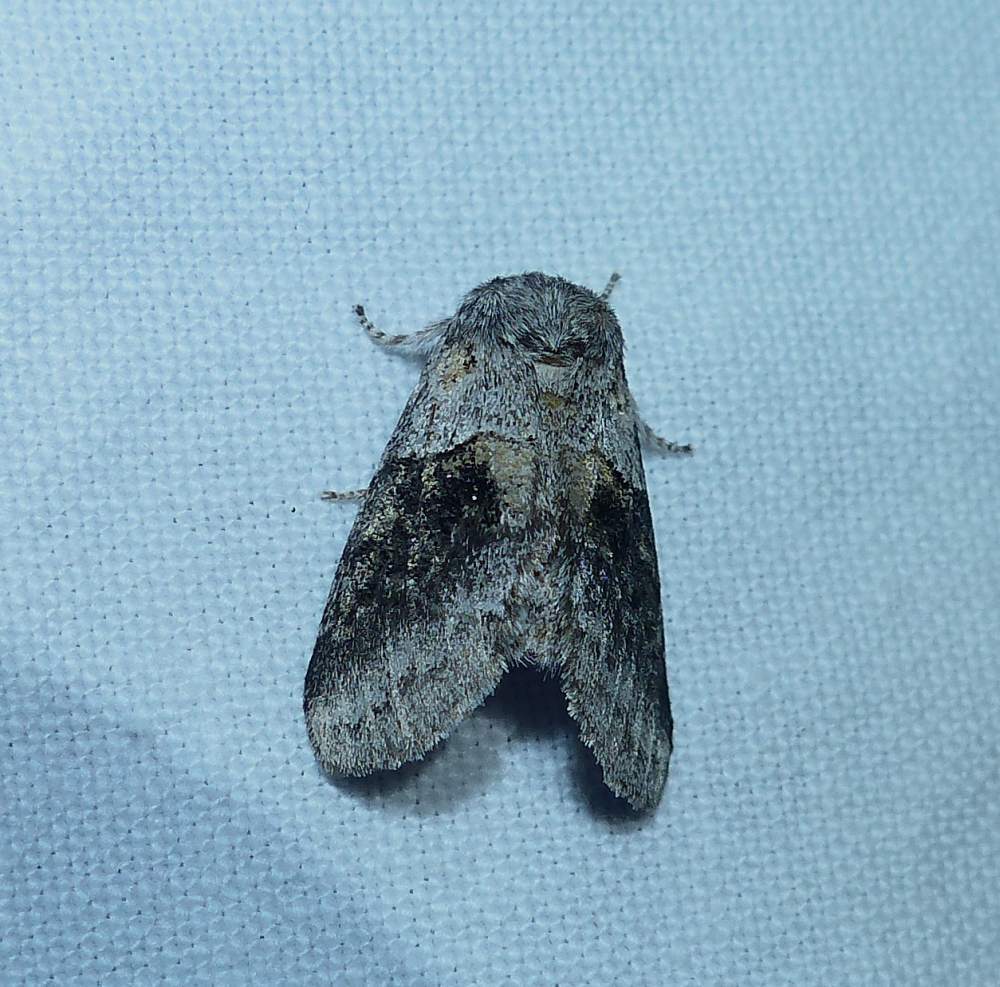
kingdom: Animalia
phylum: Arthropoda
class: Insecta
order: Lepidoptera
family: Notodontidae
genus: Gluphisia
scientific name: Gluphisia septentrionis
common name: Common gluphisia
